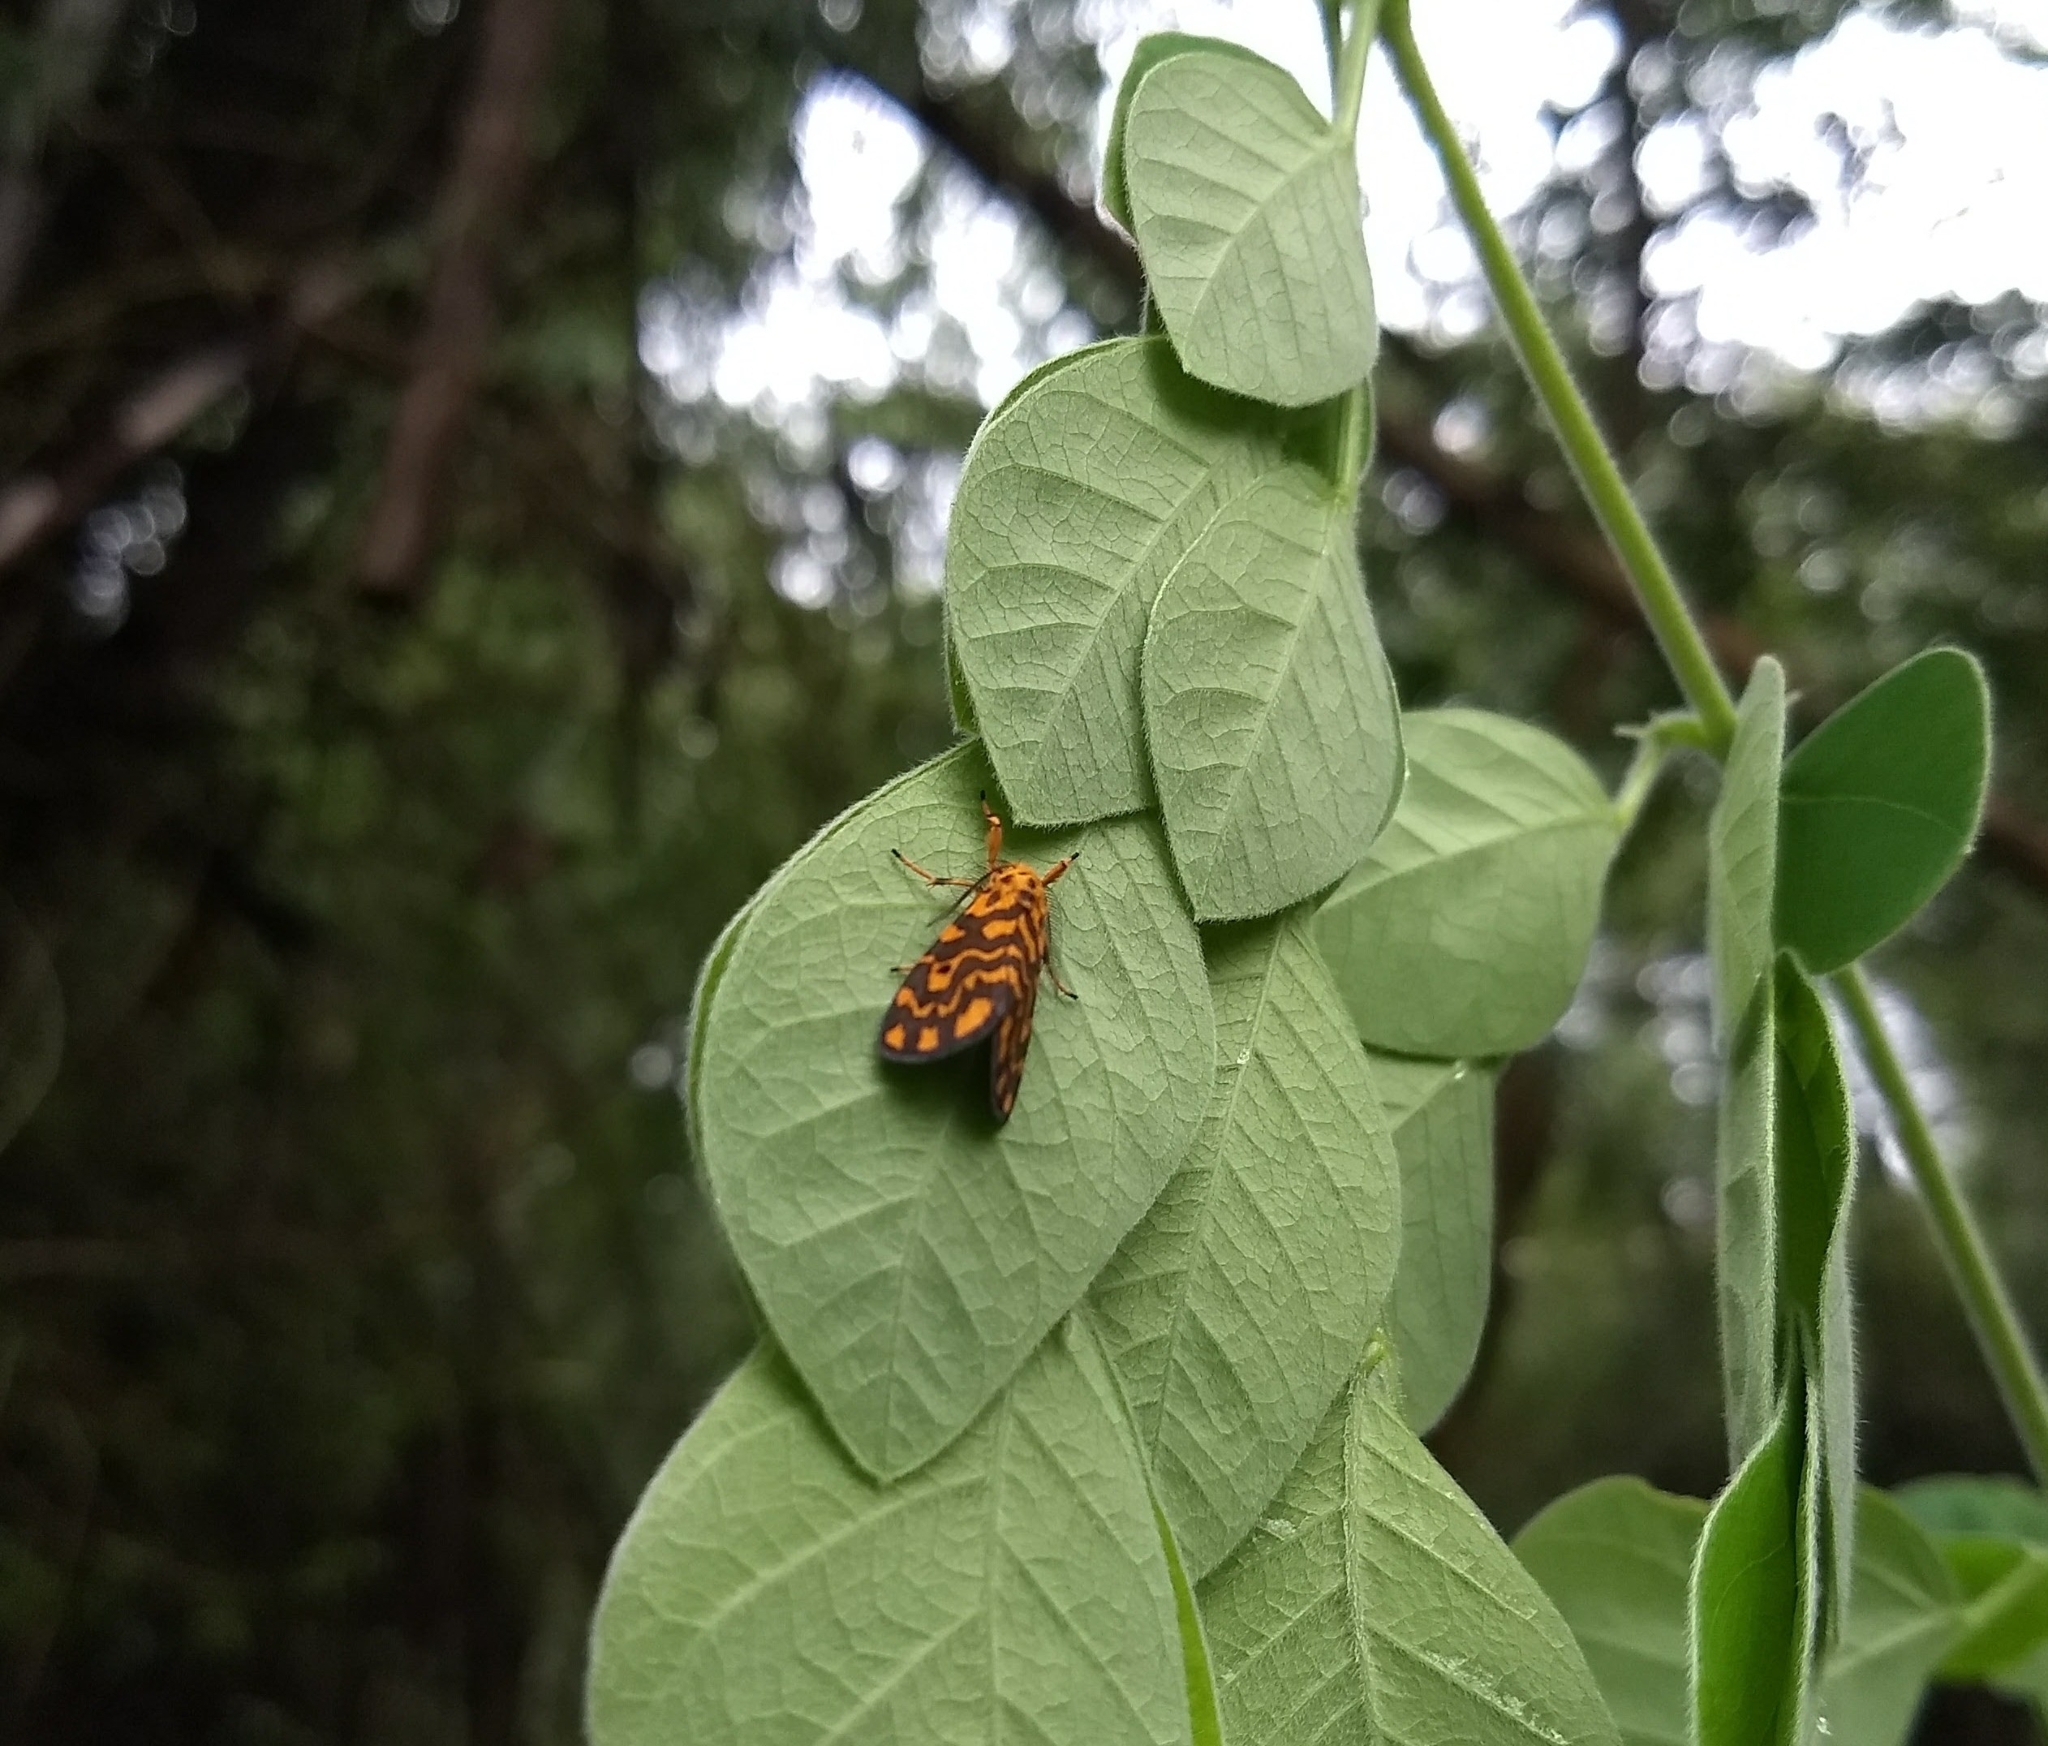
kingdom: Animalia
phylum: Arthropoda
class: Insecta
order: Lepidoptera
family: Erebidae
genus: Nepita
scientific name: Nepita conferta
